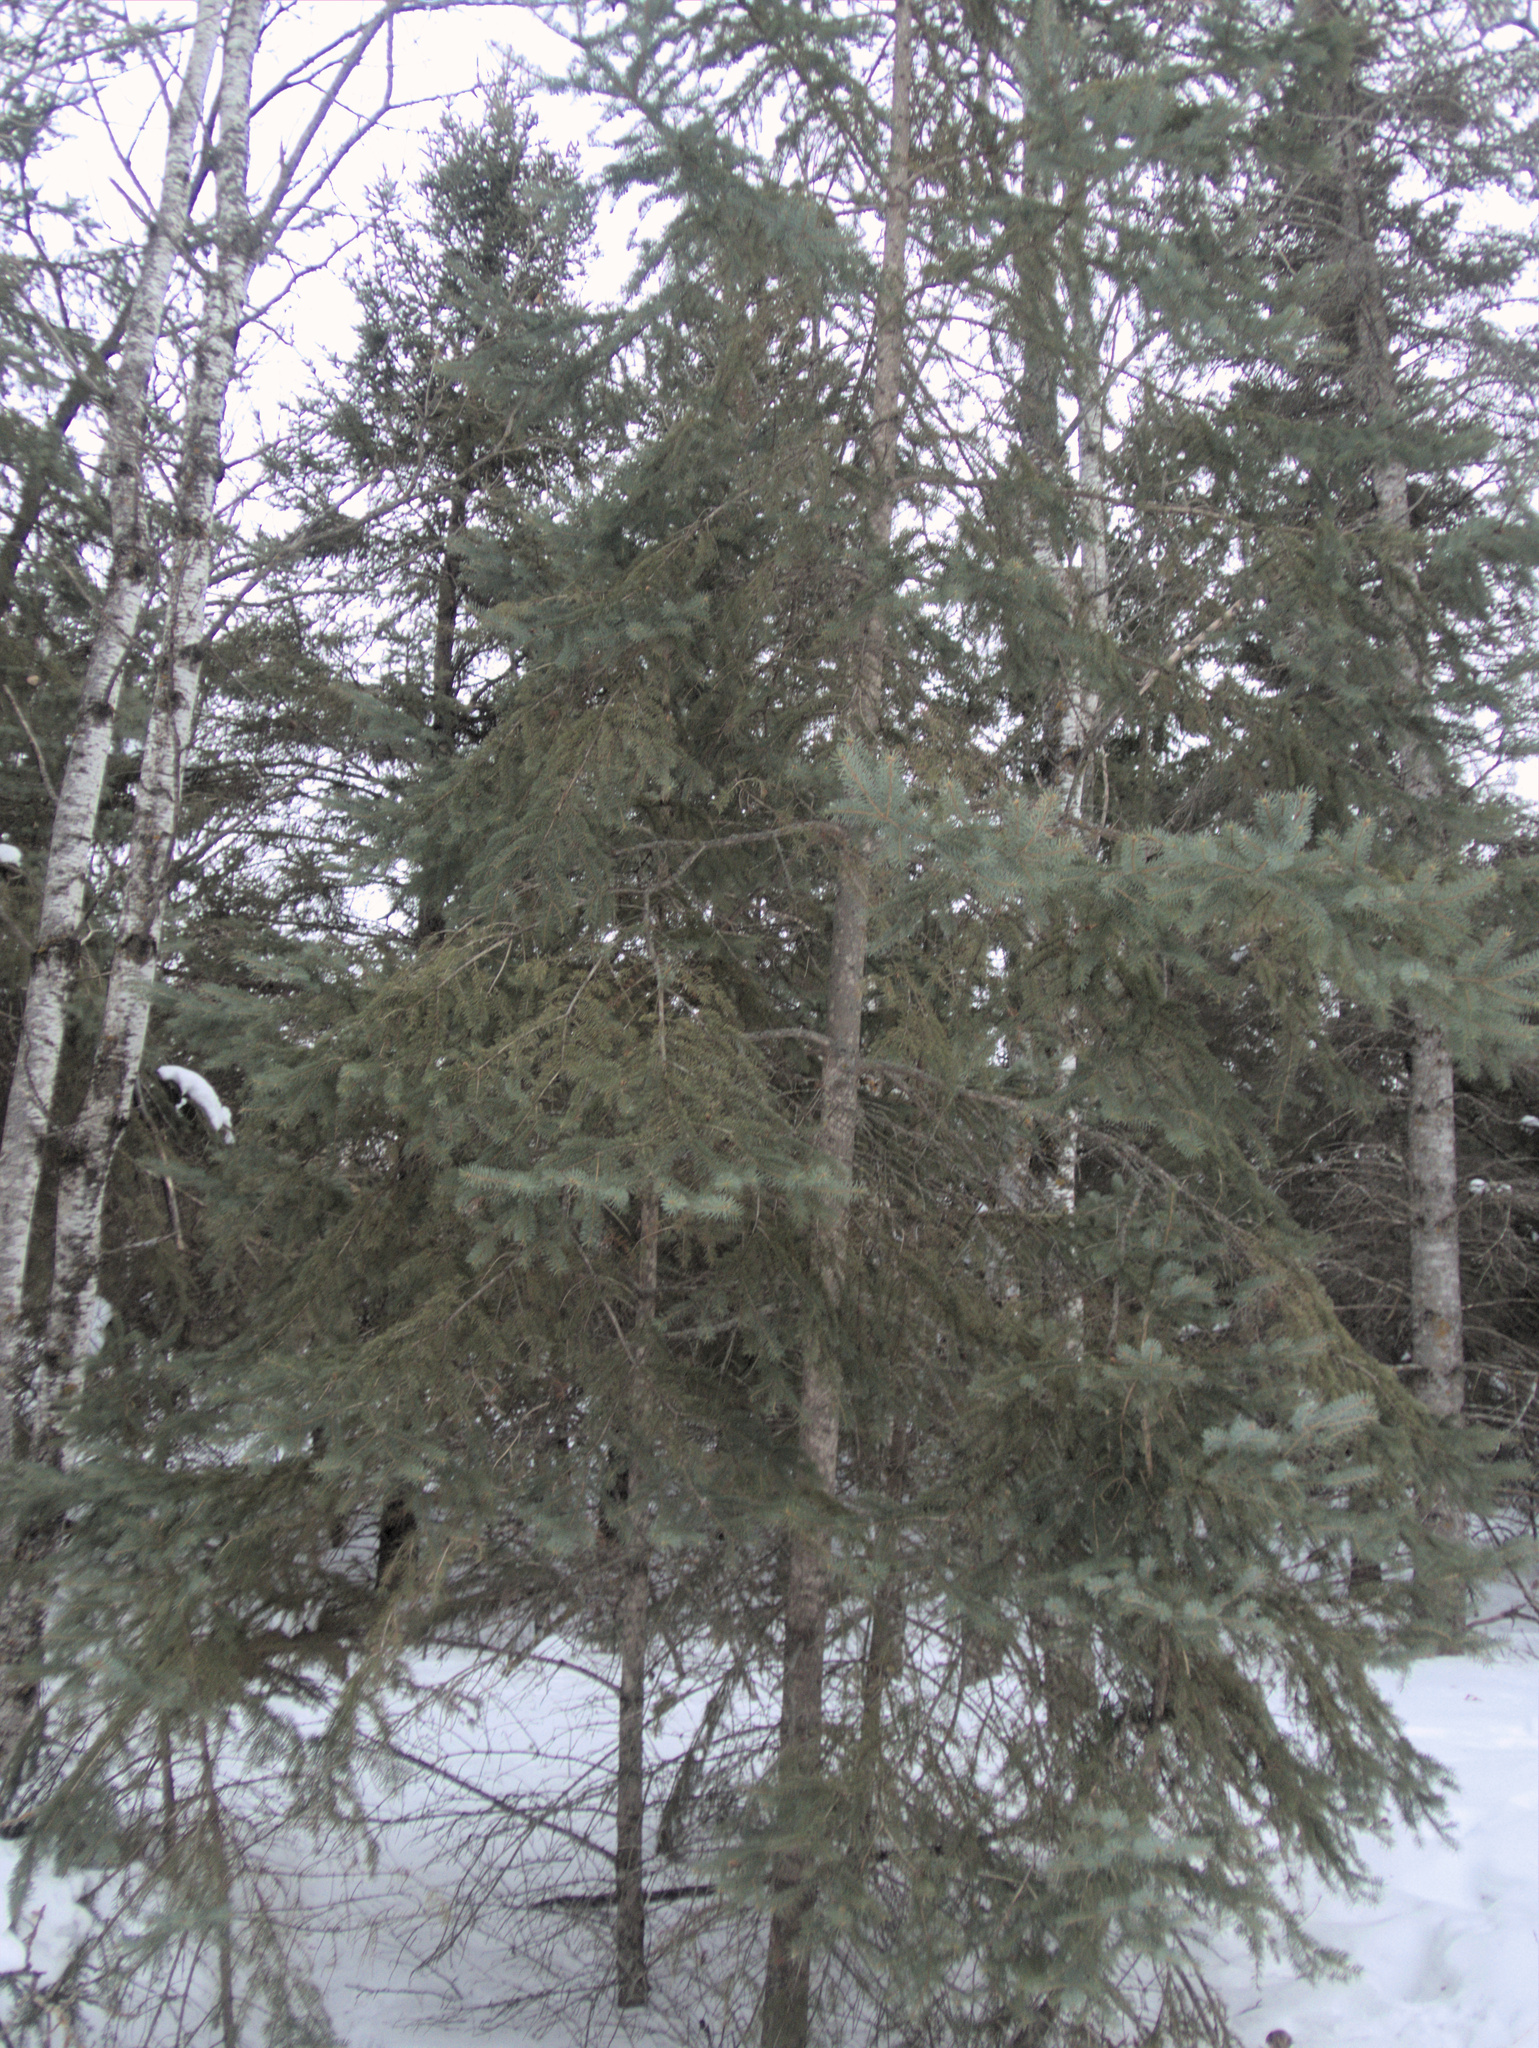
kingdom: Plantae
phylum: Tracheophyta
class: Pinopsida
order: Pinales
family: Pinaceae
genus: Picea
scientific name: Picea glauca
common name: White spruce
